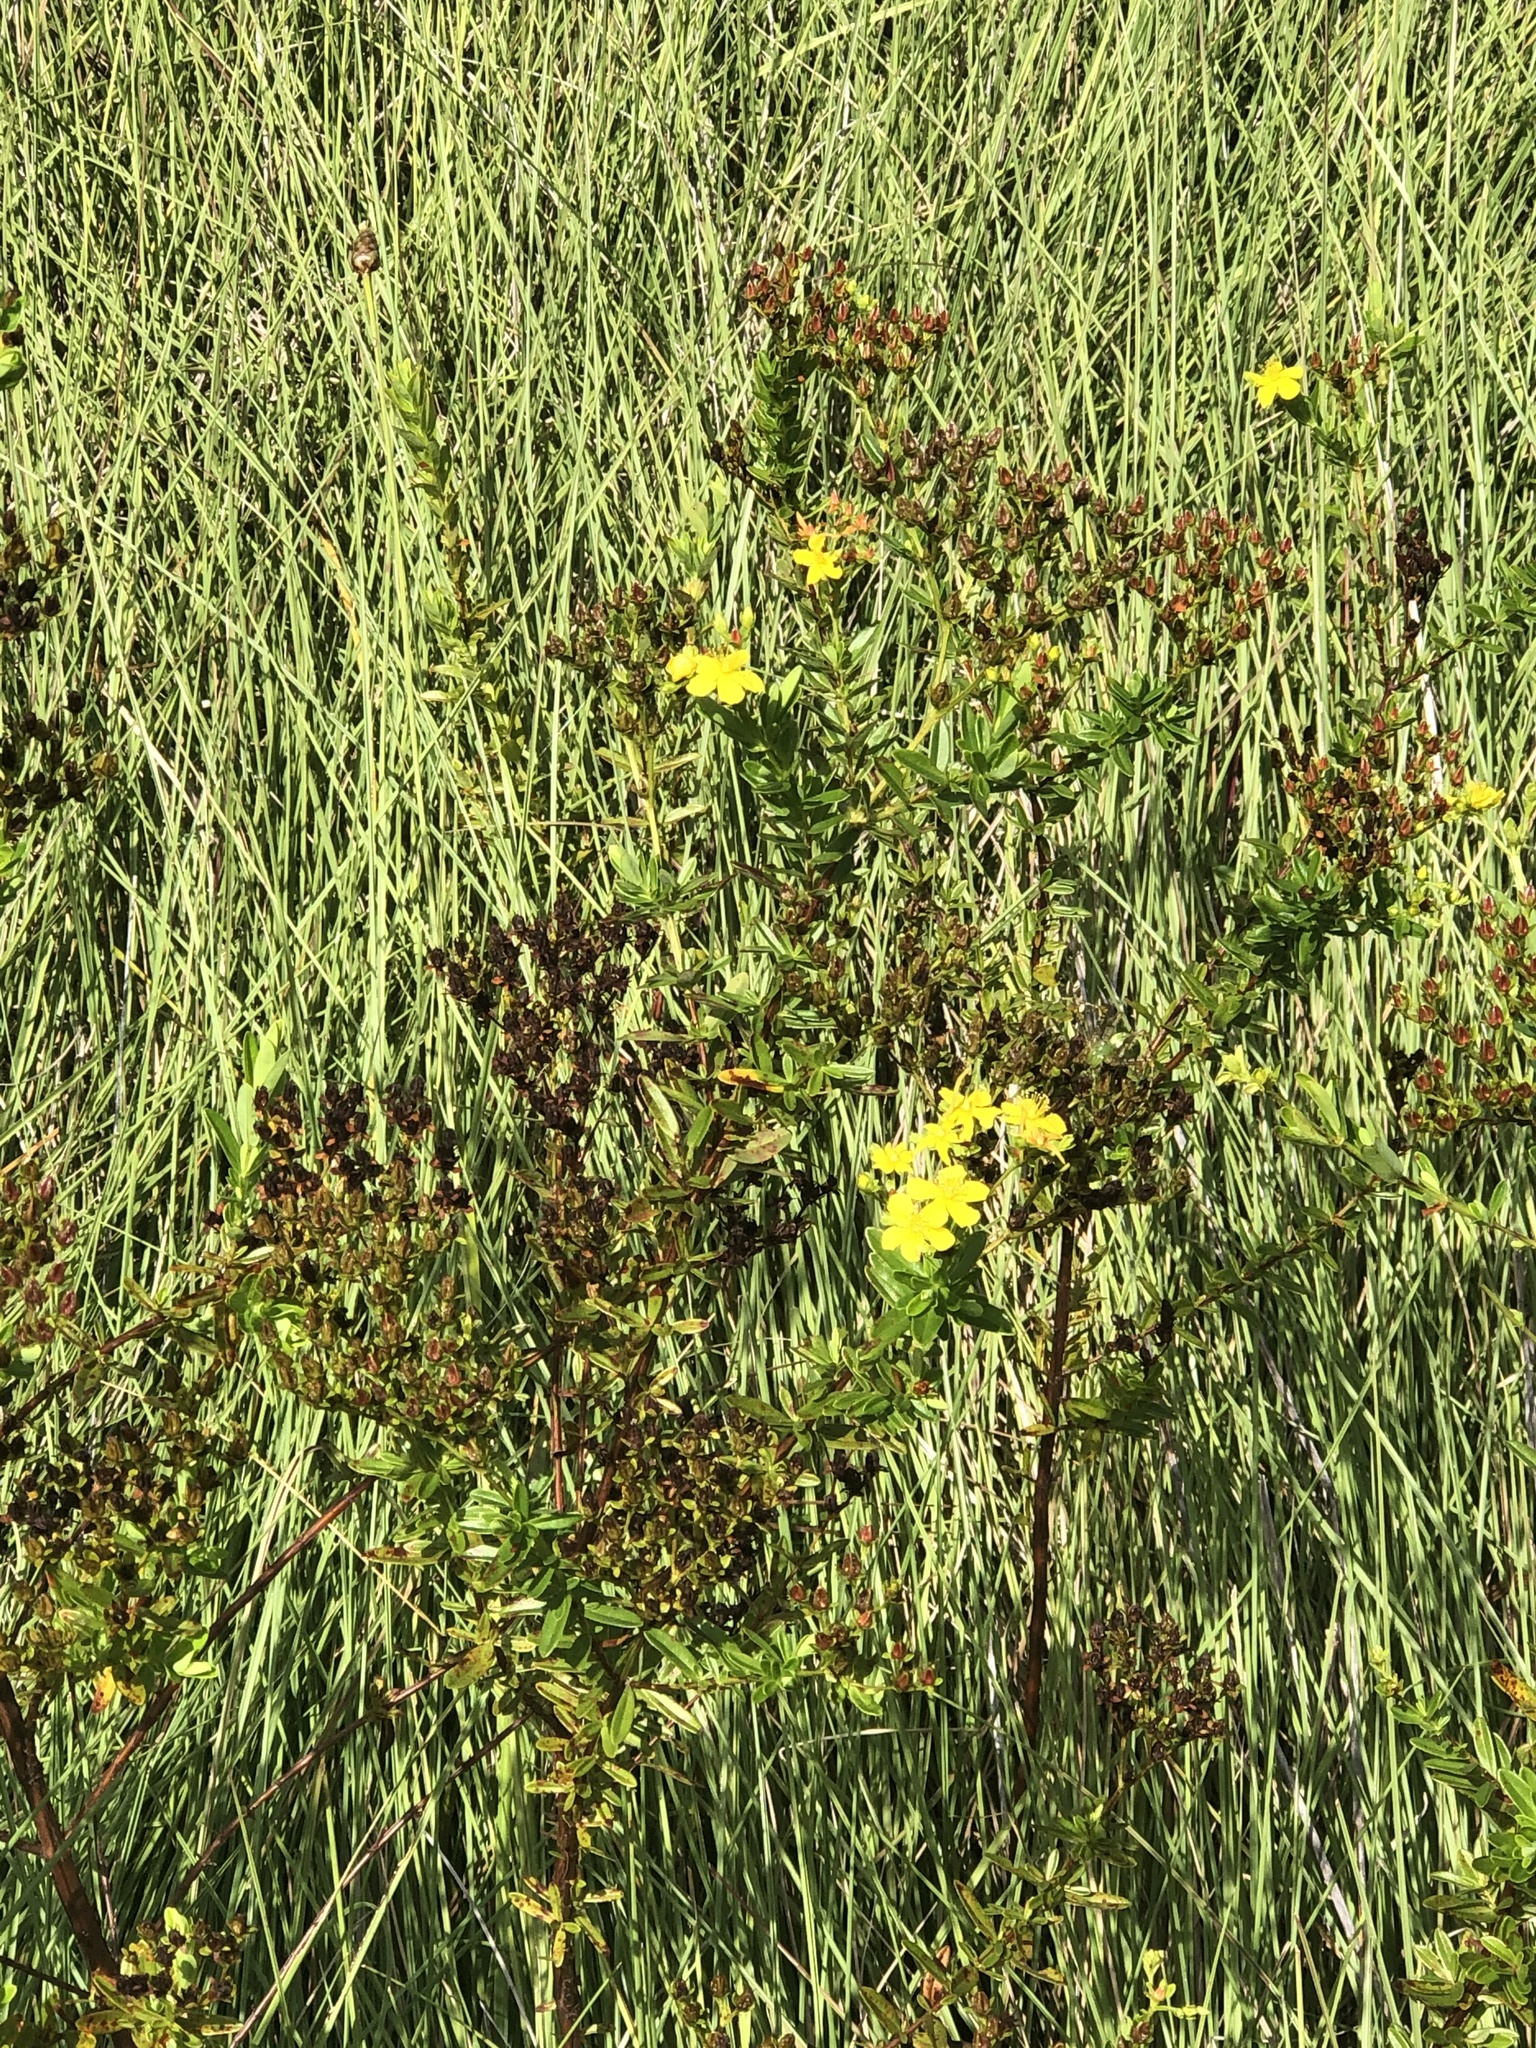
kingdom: Plantae
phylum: Tracheophyta
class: Magnoliopsida
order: Malpighiales
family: Hypericaceae
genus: Hypericum
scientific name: Hypericum cistifolium
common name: Round-pod st. john's-wort
